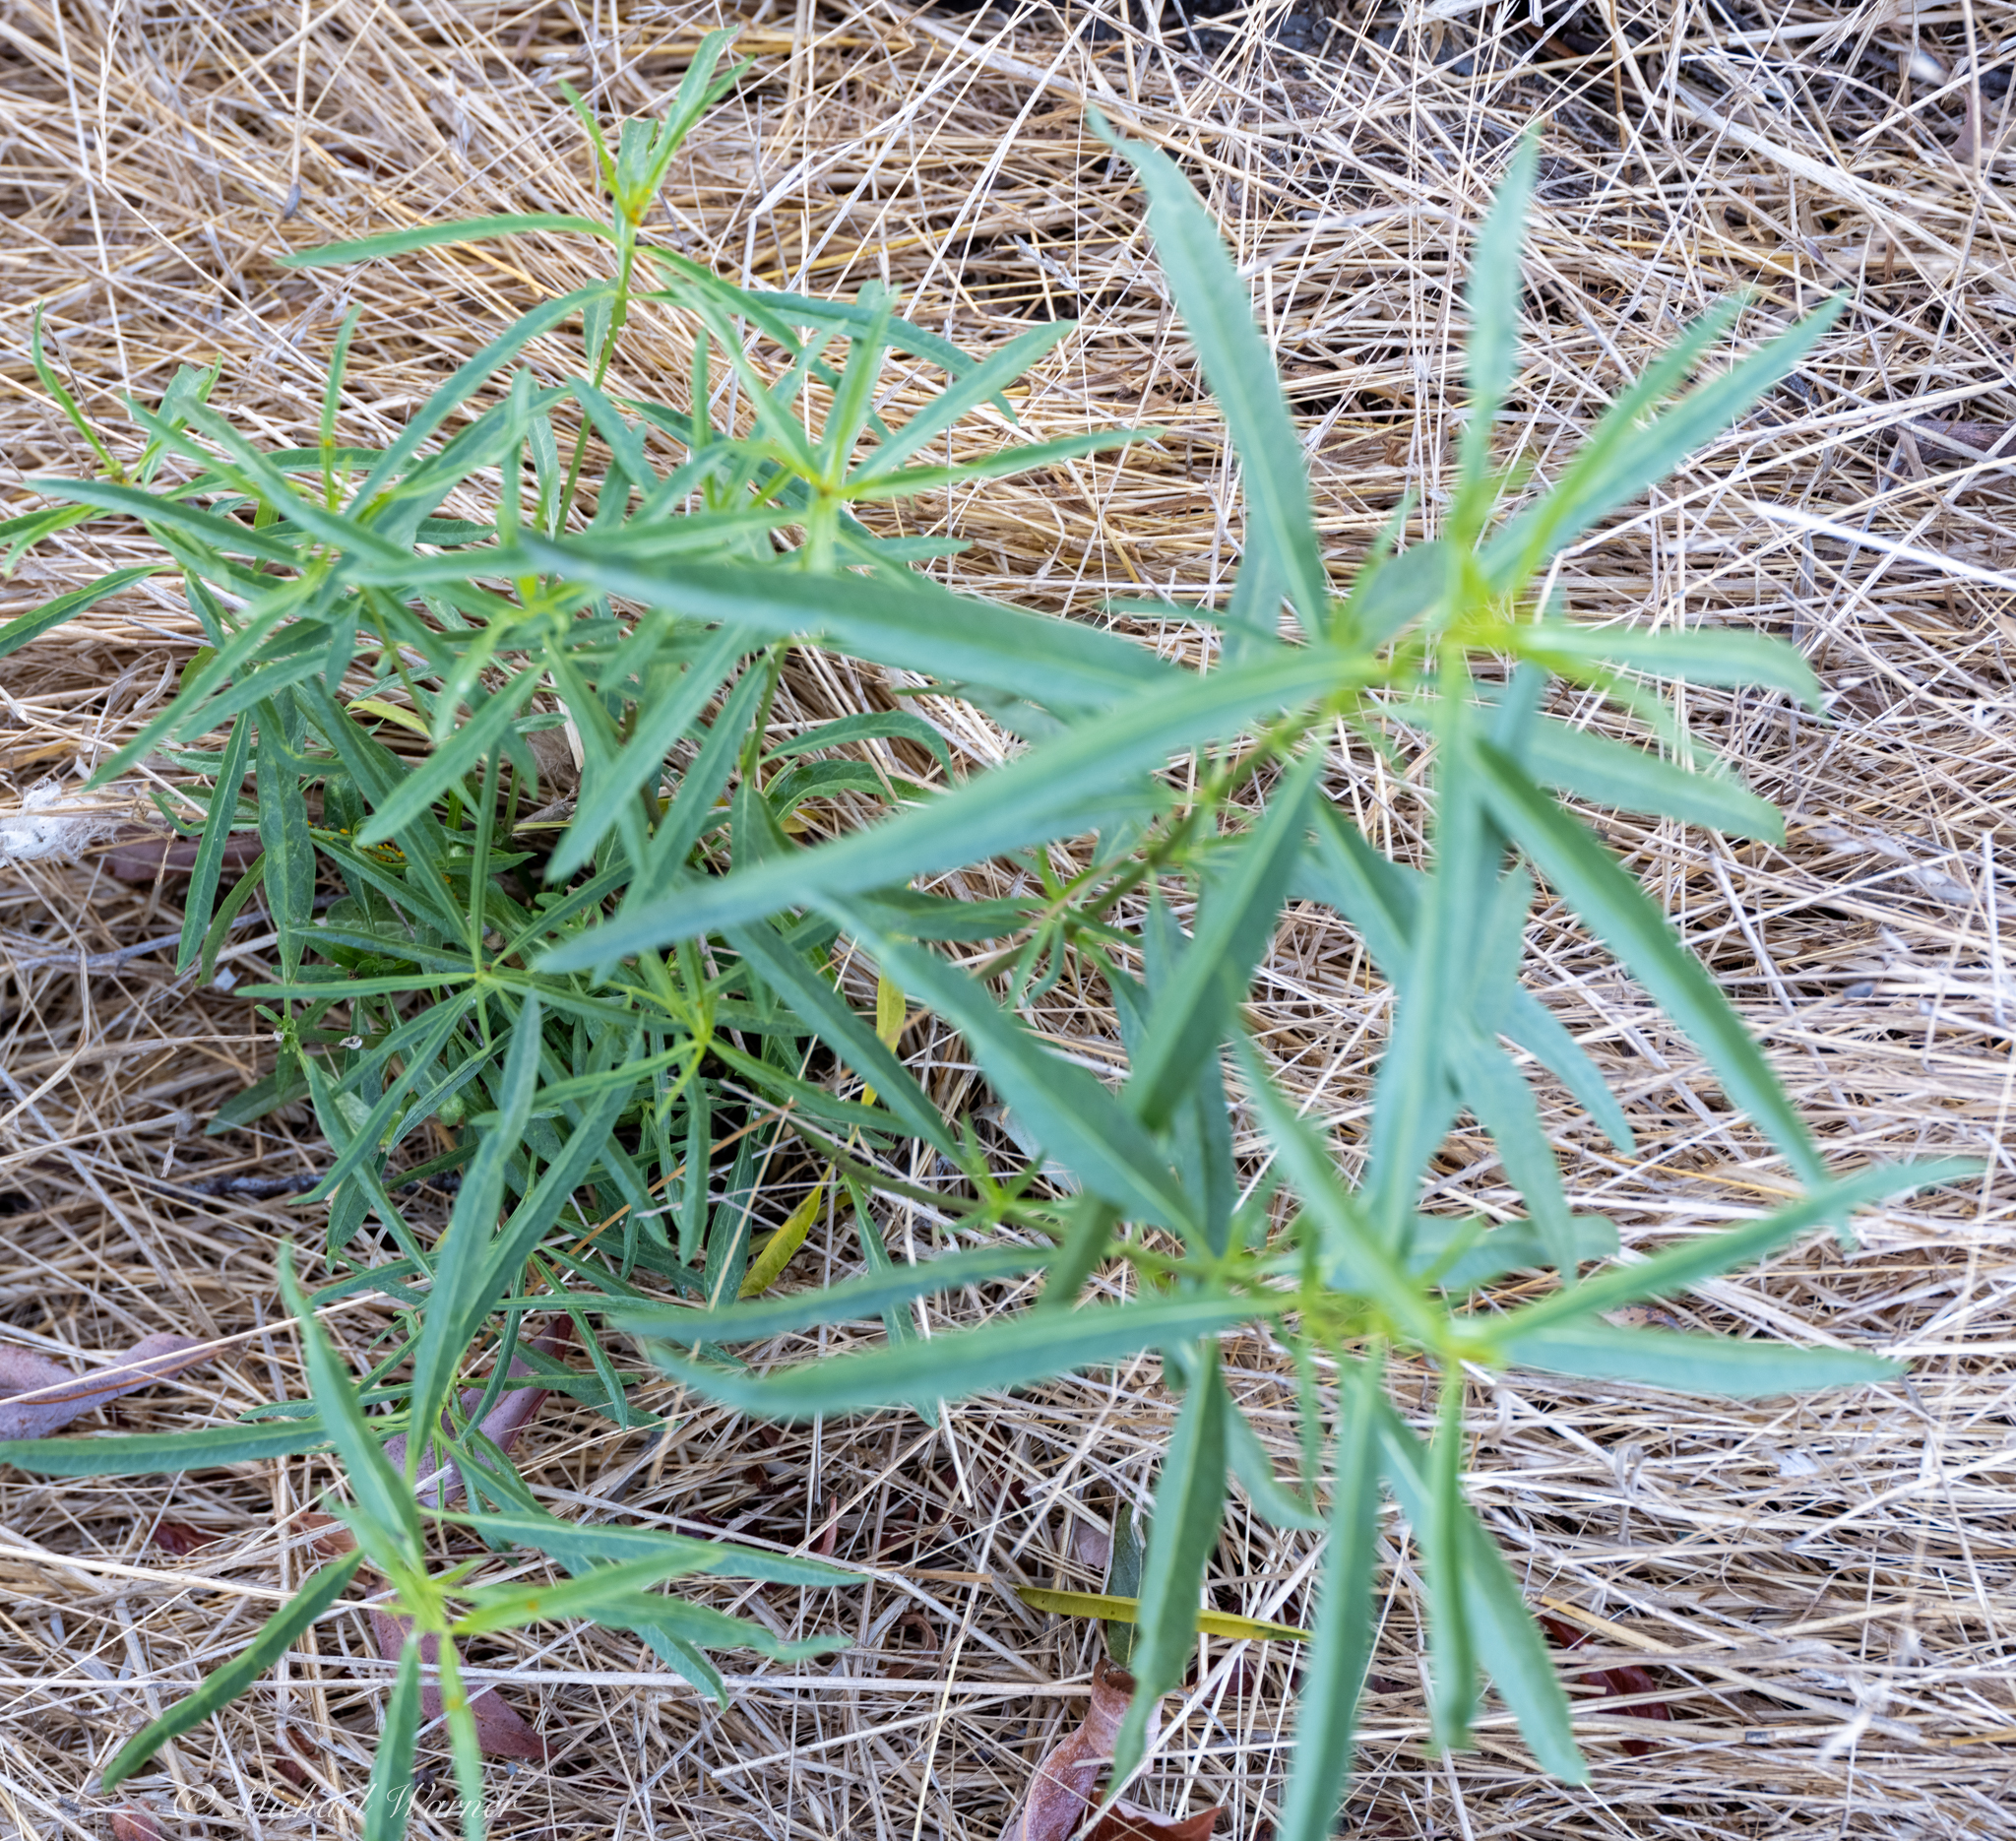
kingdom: Plantae
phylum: Tracheophyta
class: Magnoliopsida
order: Gentianales
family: Apocynaceae
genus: Asclepias
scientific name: Asclepias fascicularis
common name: Mexican milkweed
